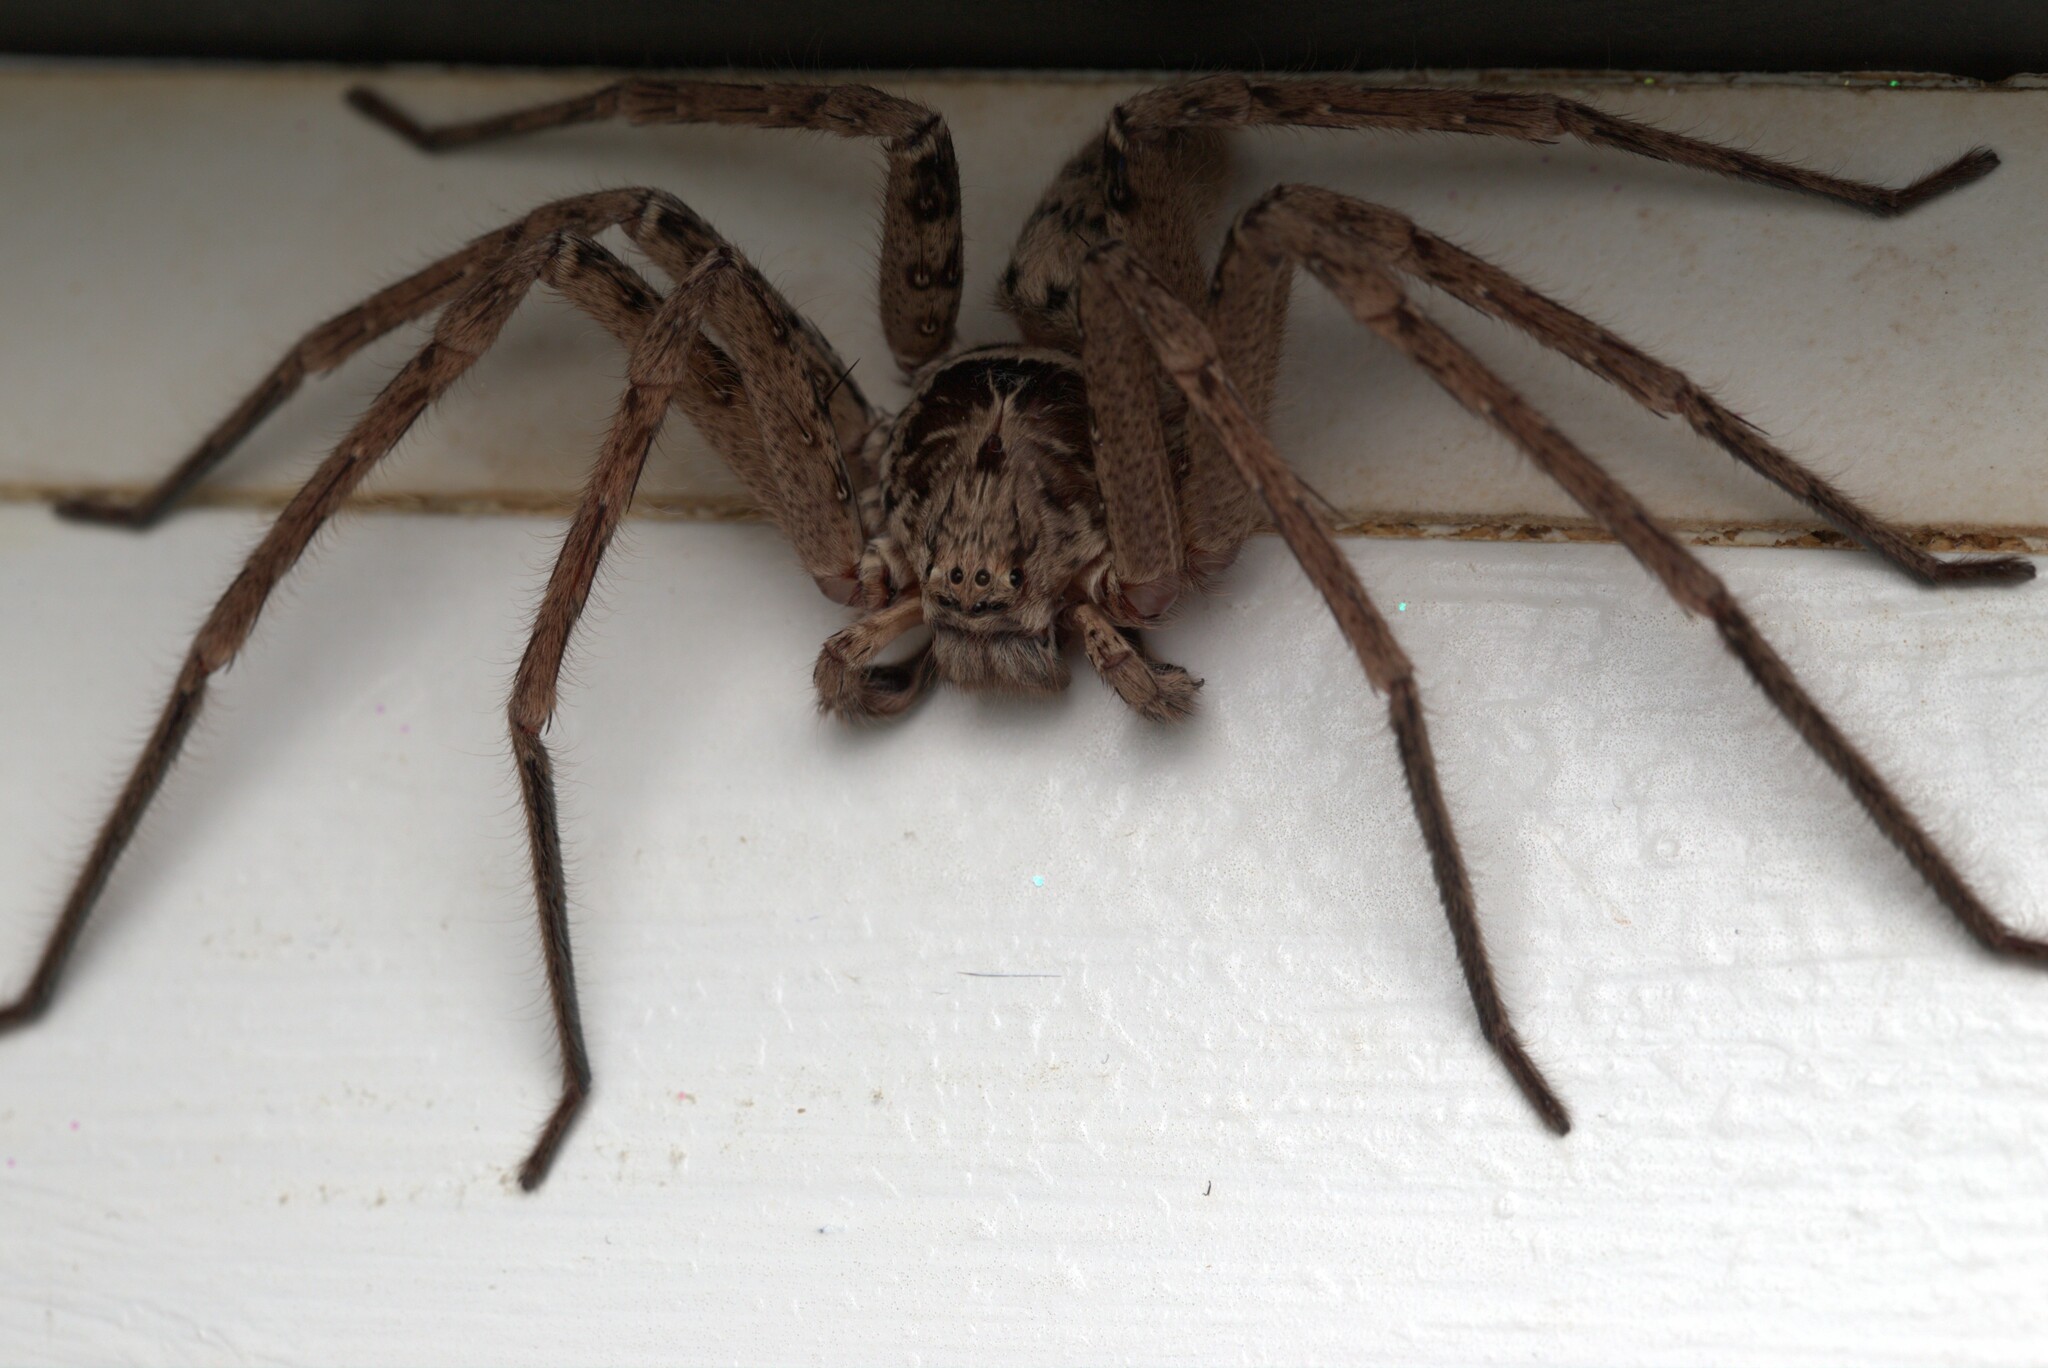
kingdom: Animalia
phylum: Arthropoda
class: Arachnida
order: Araneae
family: Sparassidae
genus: Heteropoda
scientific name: Heteropoda jugulans
